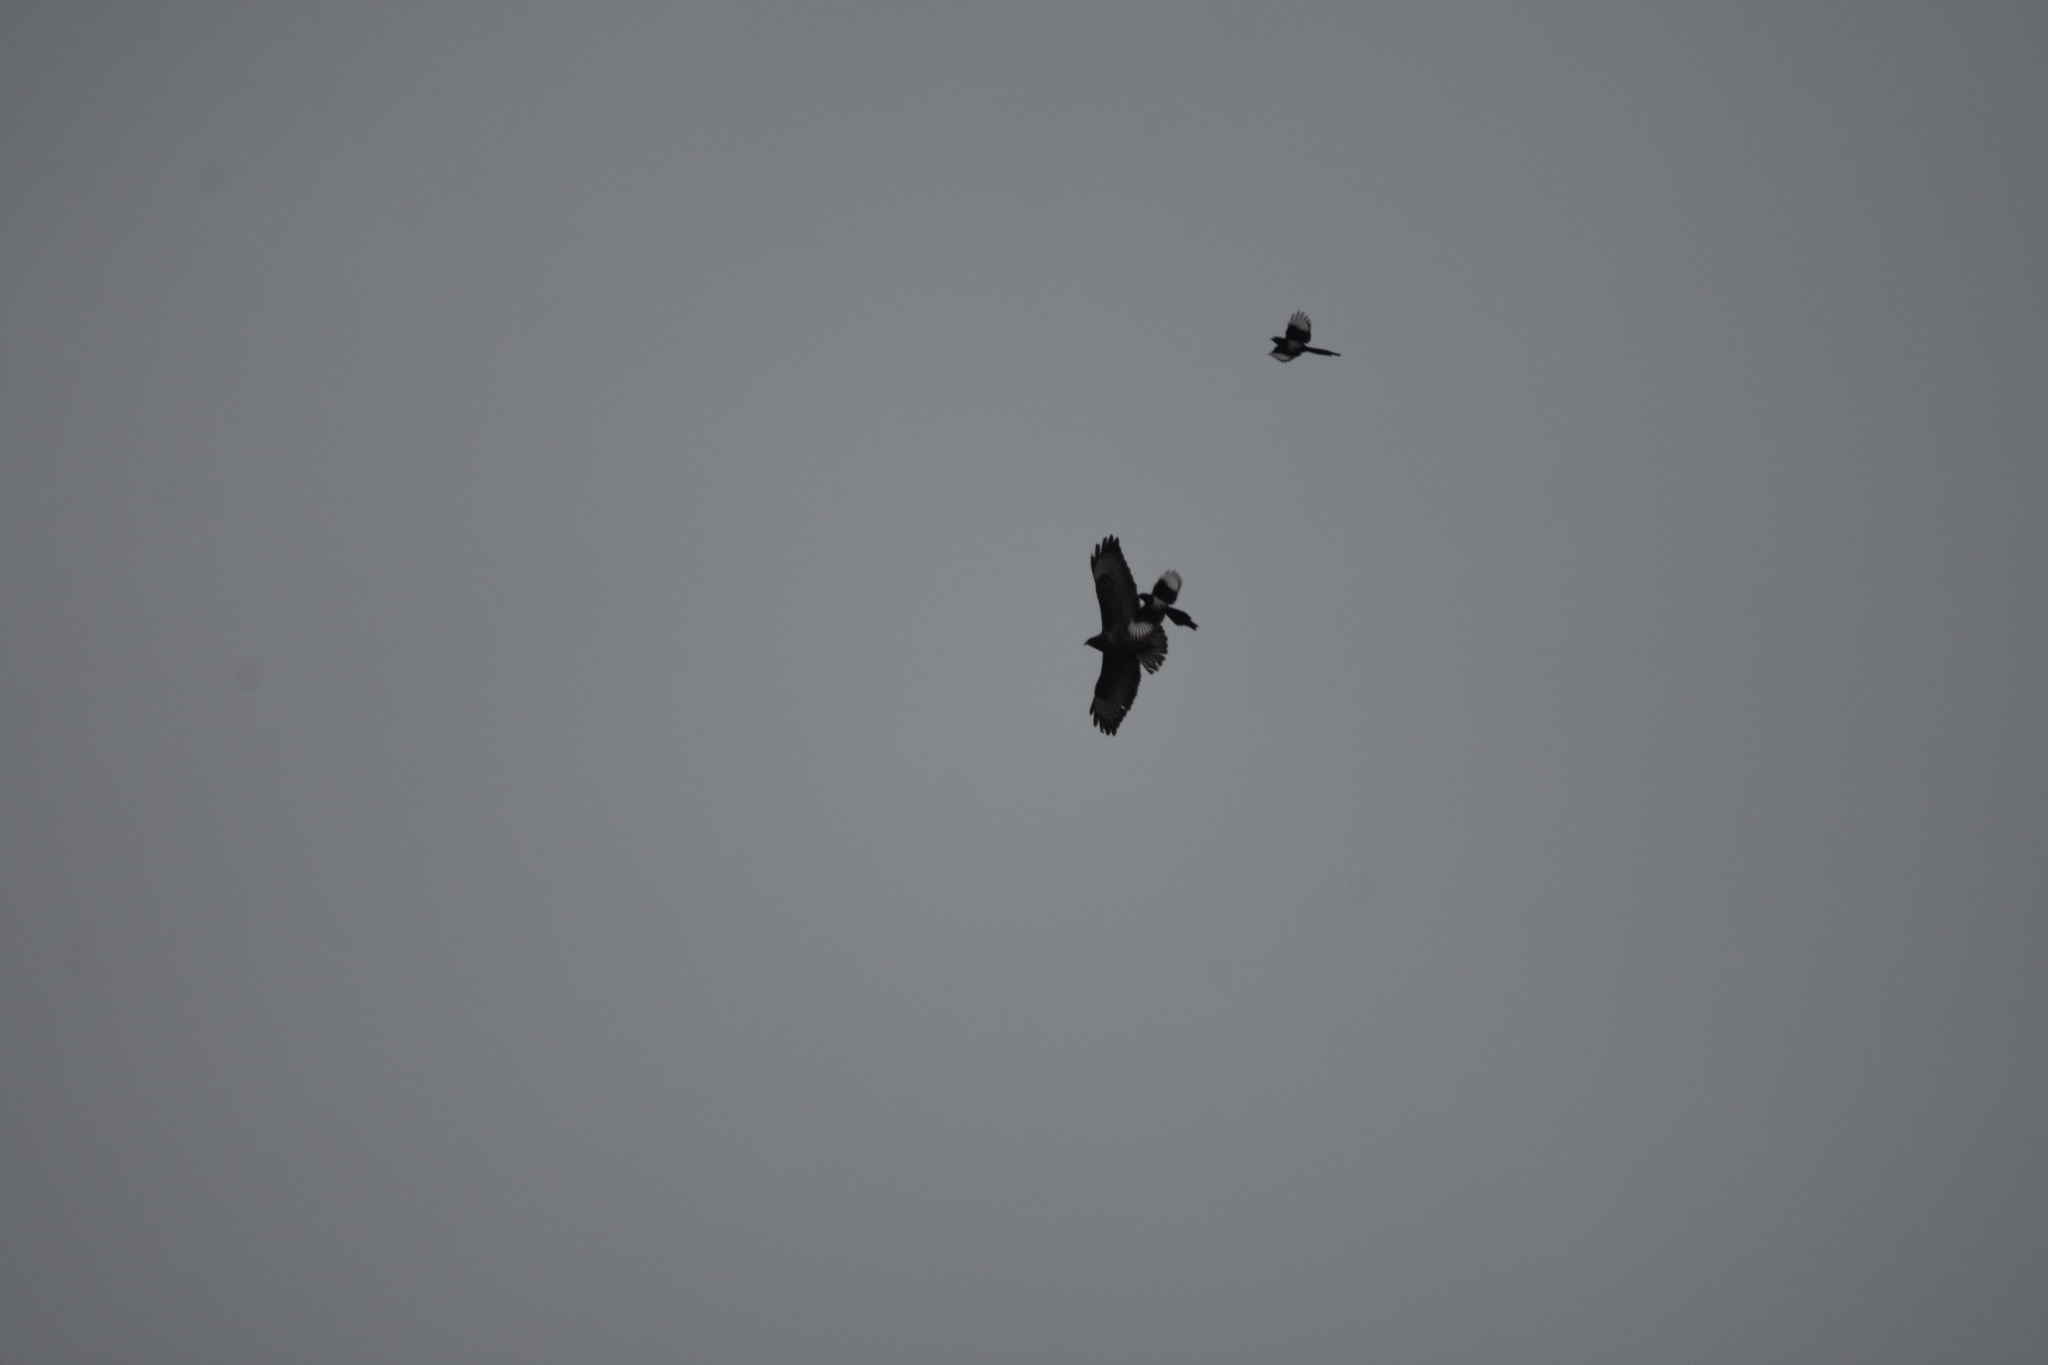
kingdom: Animalia
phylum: Chordata
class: Aves
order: Passeriformes
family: Corvidae
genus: Pica
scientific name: Pica pica
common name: Eurasian magpie
